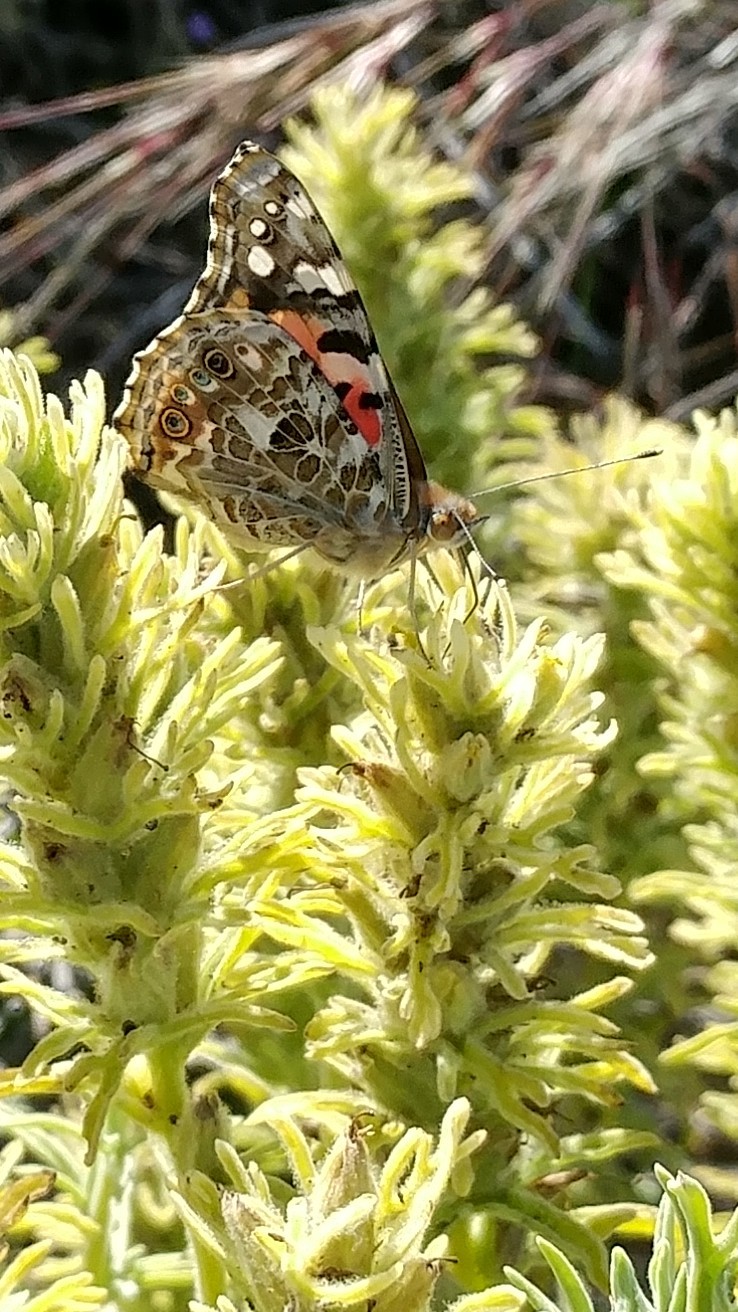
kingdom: Animalia
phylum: Arthropoda
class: Insecta
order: Lepidoptera
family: Nymphalidae
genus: Vanessa
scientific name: Vanessa cardui
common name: Painted lady
